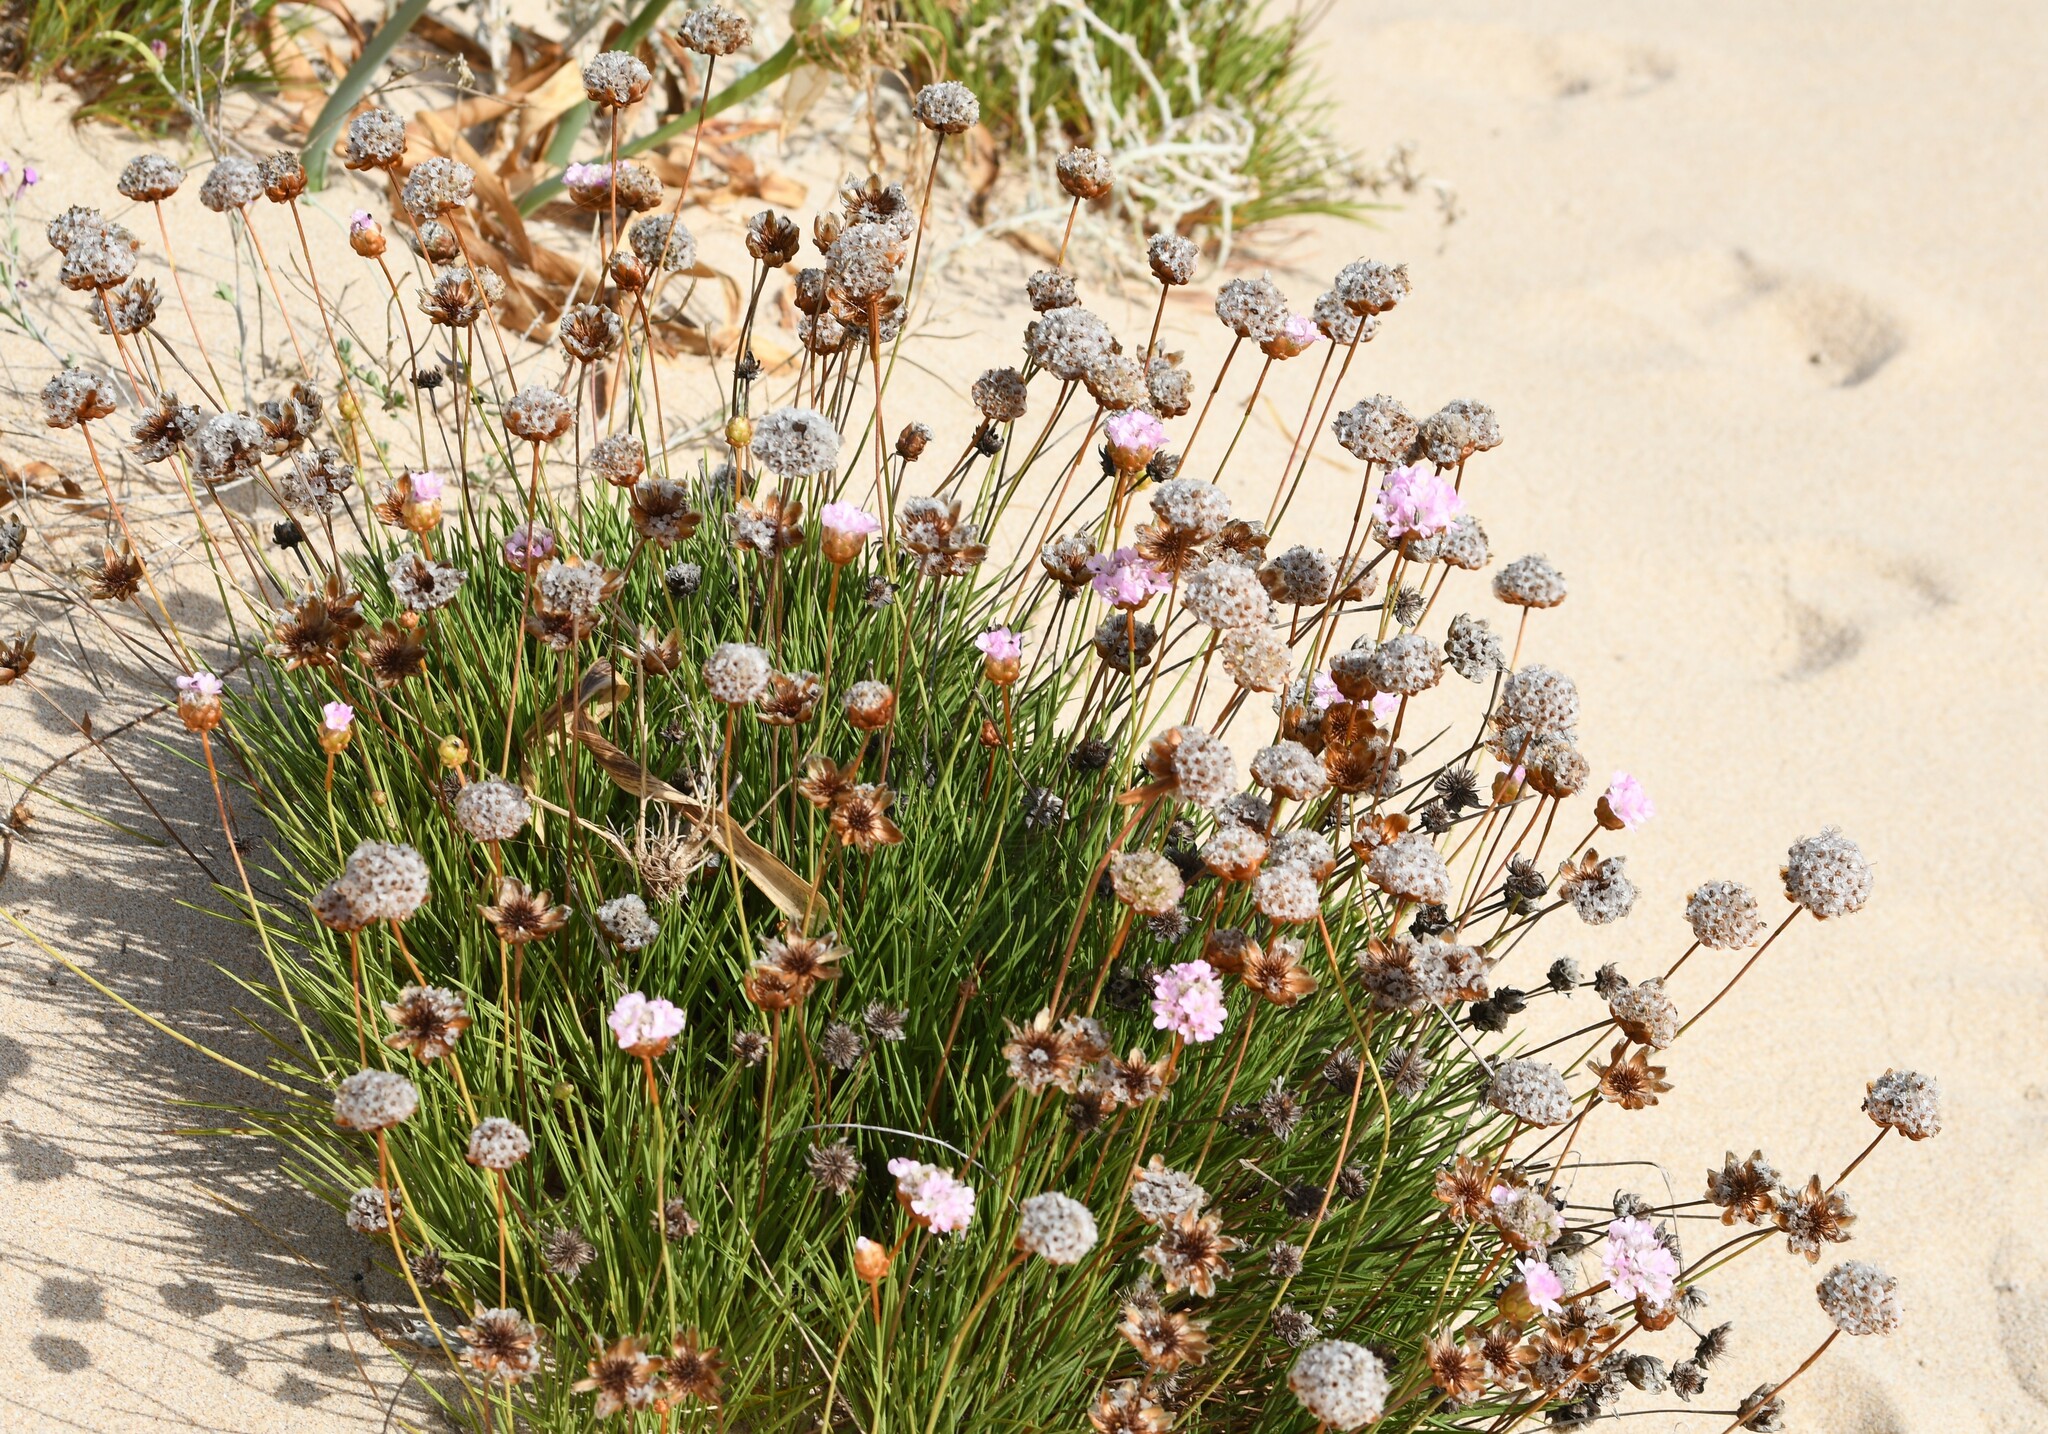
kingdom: Plantae
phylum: Tracheophyta
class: Magnoliopsida
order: Caryophyllales
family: Plumbaginaceae
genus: Armeria
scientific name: Armeria pungens
